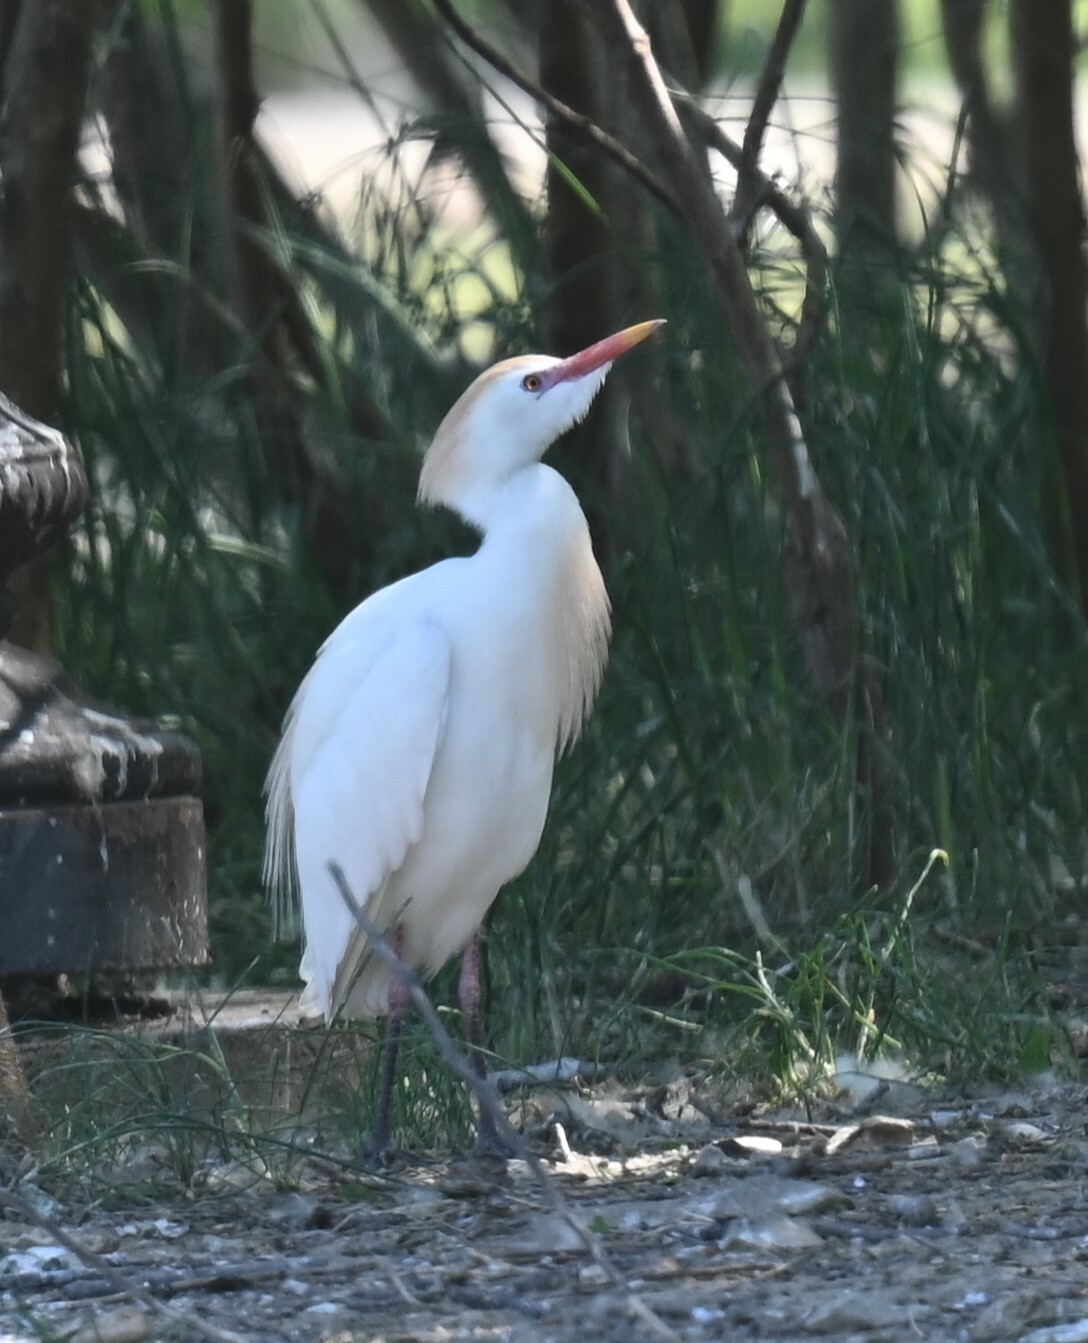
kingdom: Animalia
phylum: Chordata
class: Aves
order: Pelecaniformes
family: Ardeidae
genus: Bubulcus
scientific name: Bubulcus ibis
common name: Cattle egret
